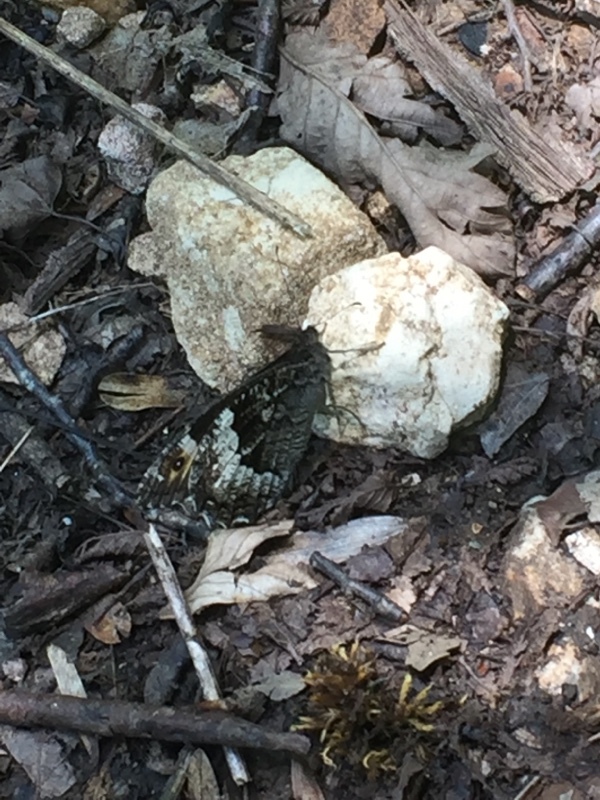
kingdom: Animalia
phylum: Arthropoda
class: Insecta
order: Lepidoptera
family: Nymphalidae
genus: Hipparchia
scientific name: Hipparchia syriaca
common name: Eastern rock grayling
